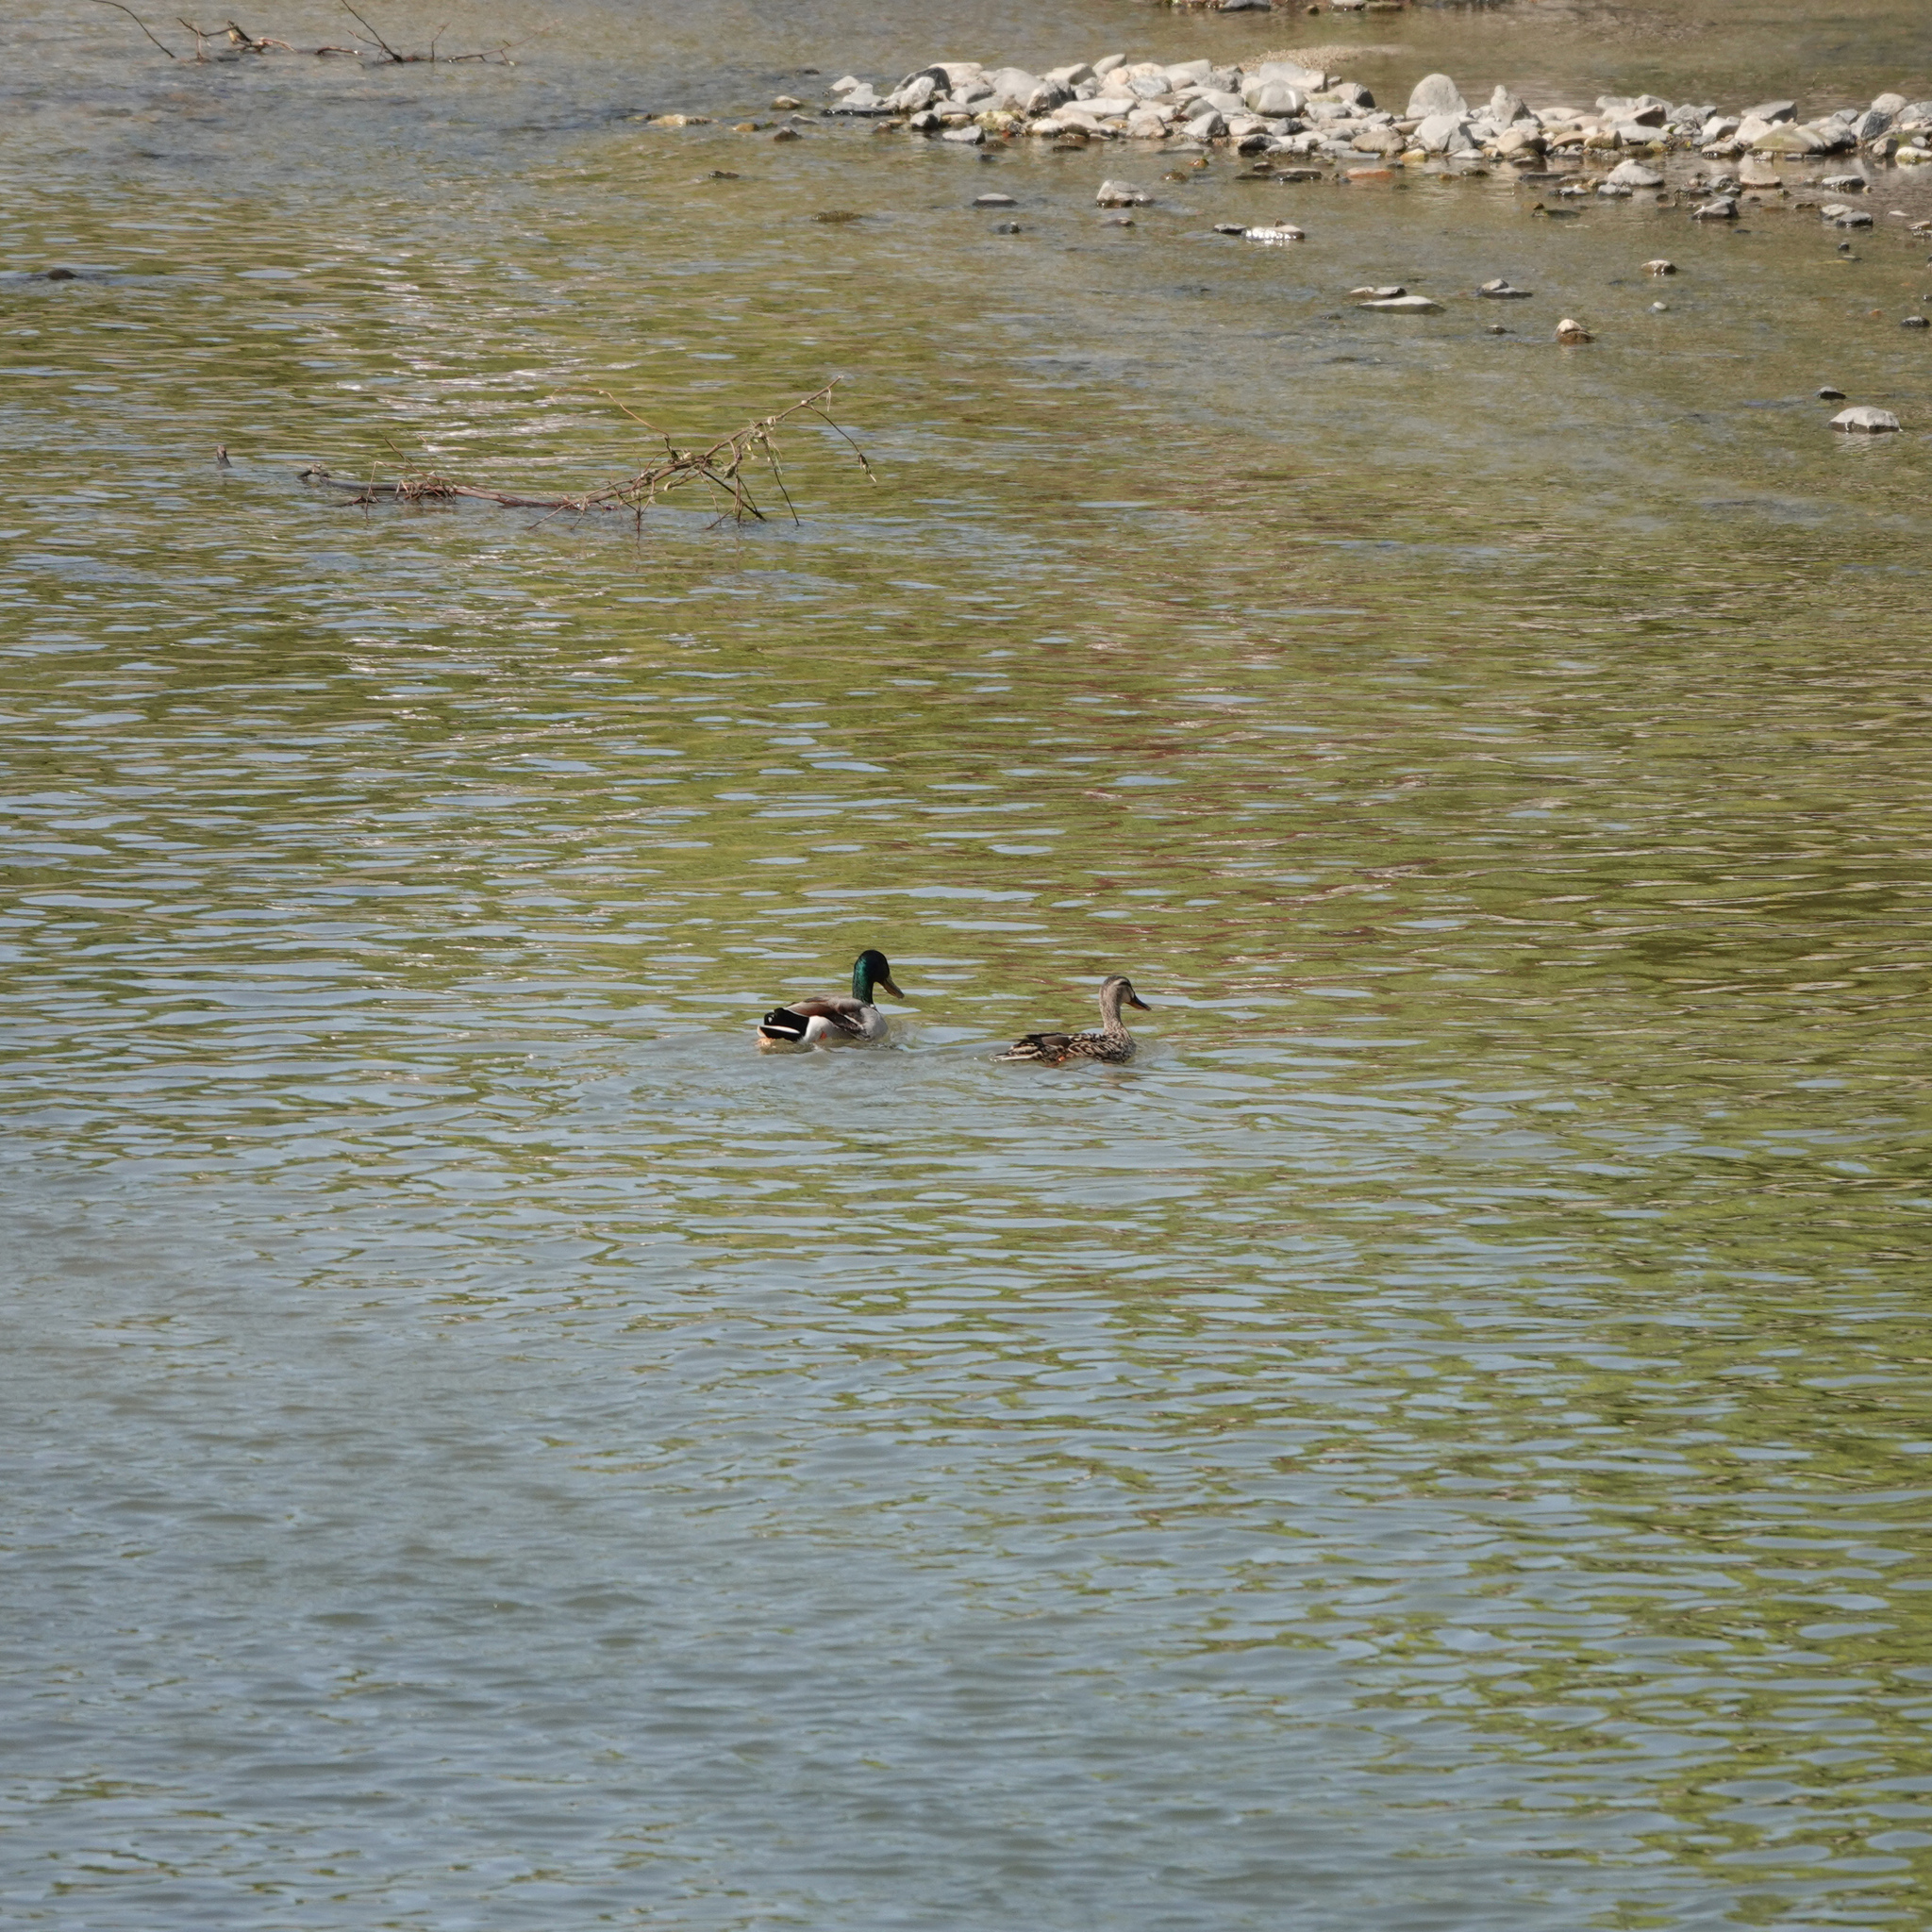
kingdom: Animalia
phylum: Chordata
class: Aves
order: Anseriformes
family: Anatidae
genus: Anas
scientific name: Anas platyrhynchos
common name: Mallard
